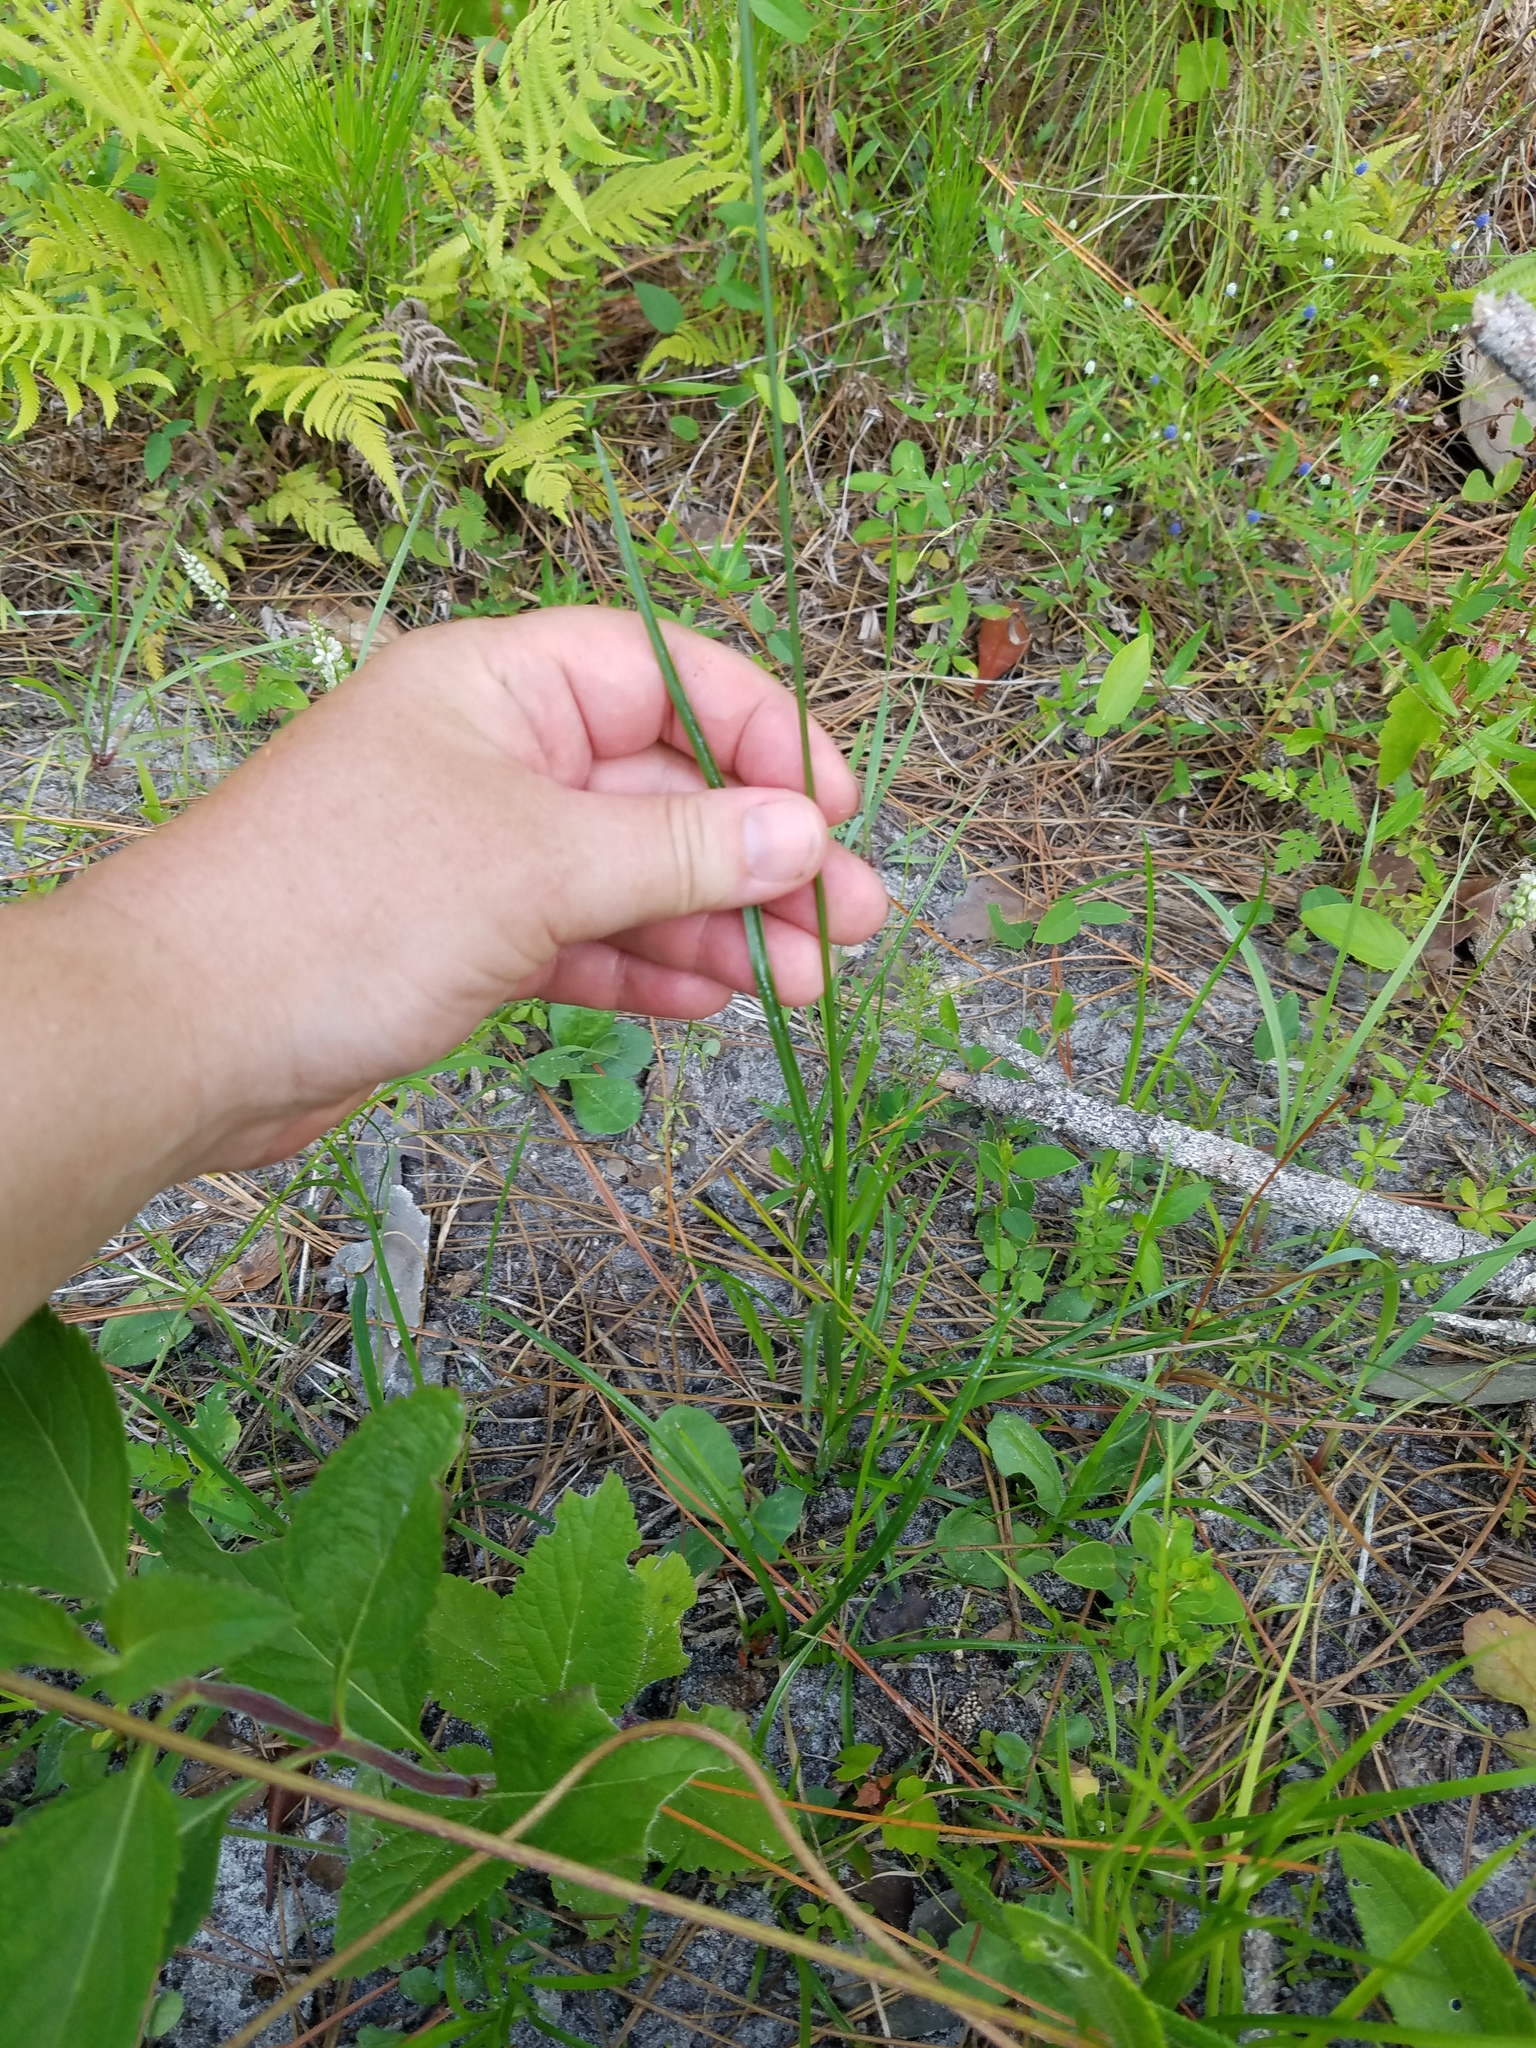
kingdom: Plantae
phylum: Tracheophyta
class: Liliopsida
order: Poales
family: Cyperaceae
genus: Rhynchospora
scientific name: Rhynchospora colorata
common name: Star sedge
